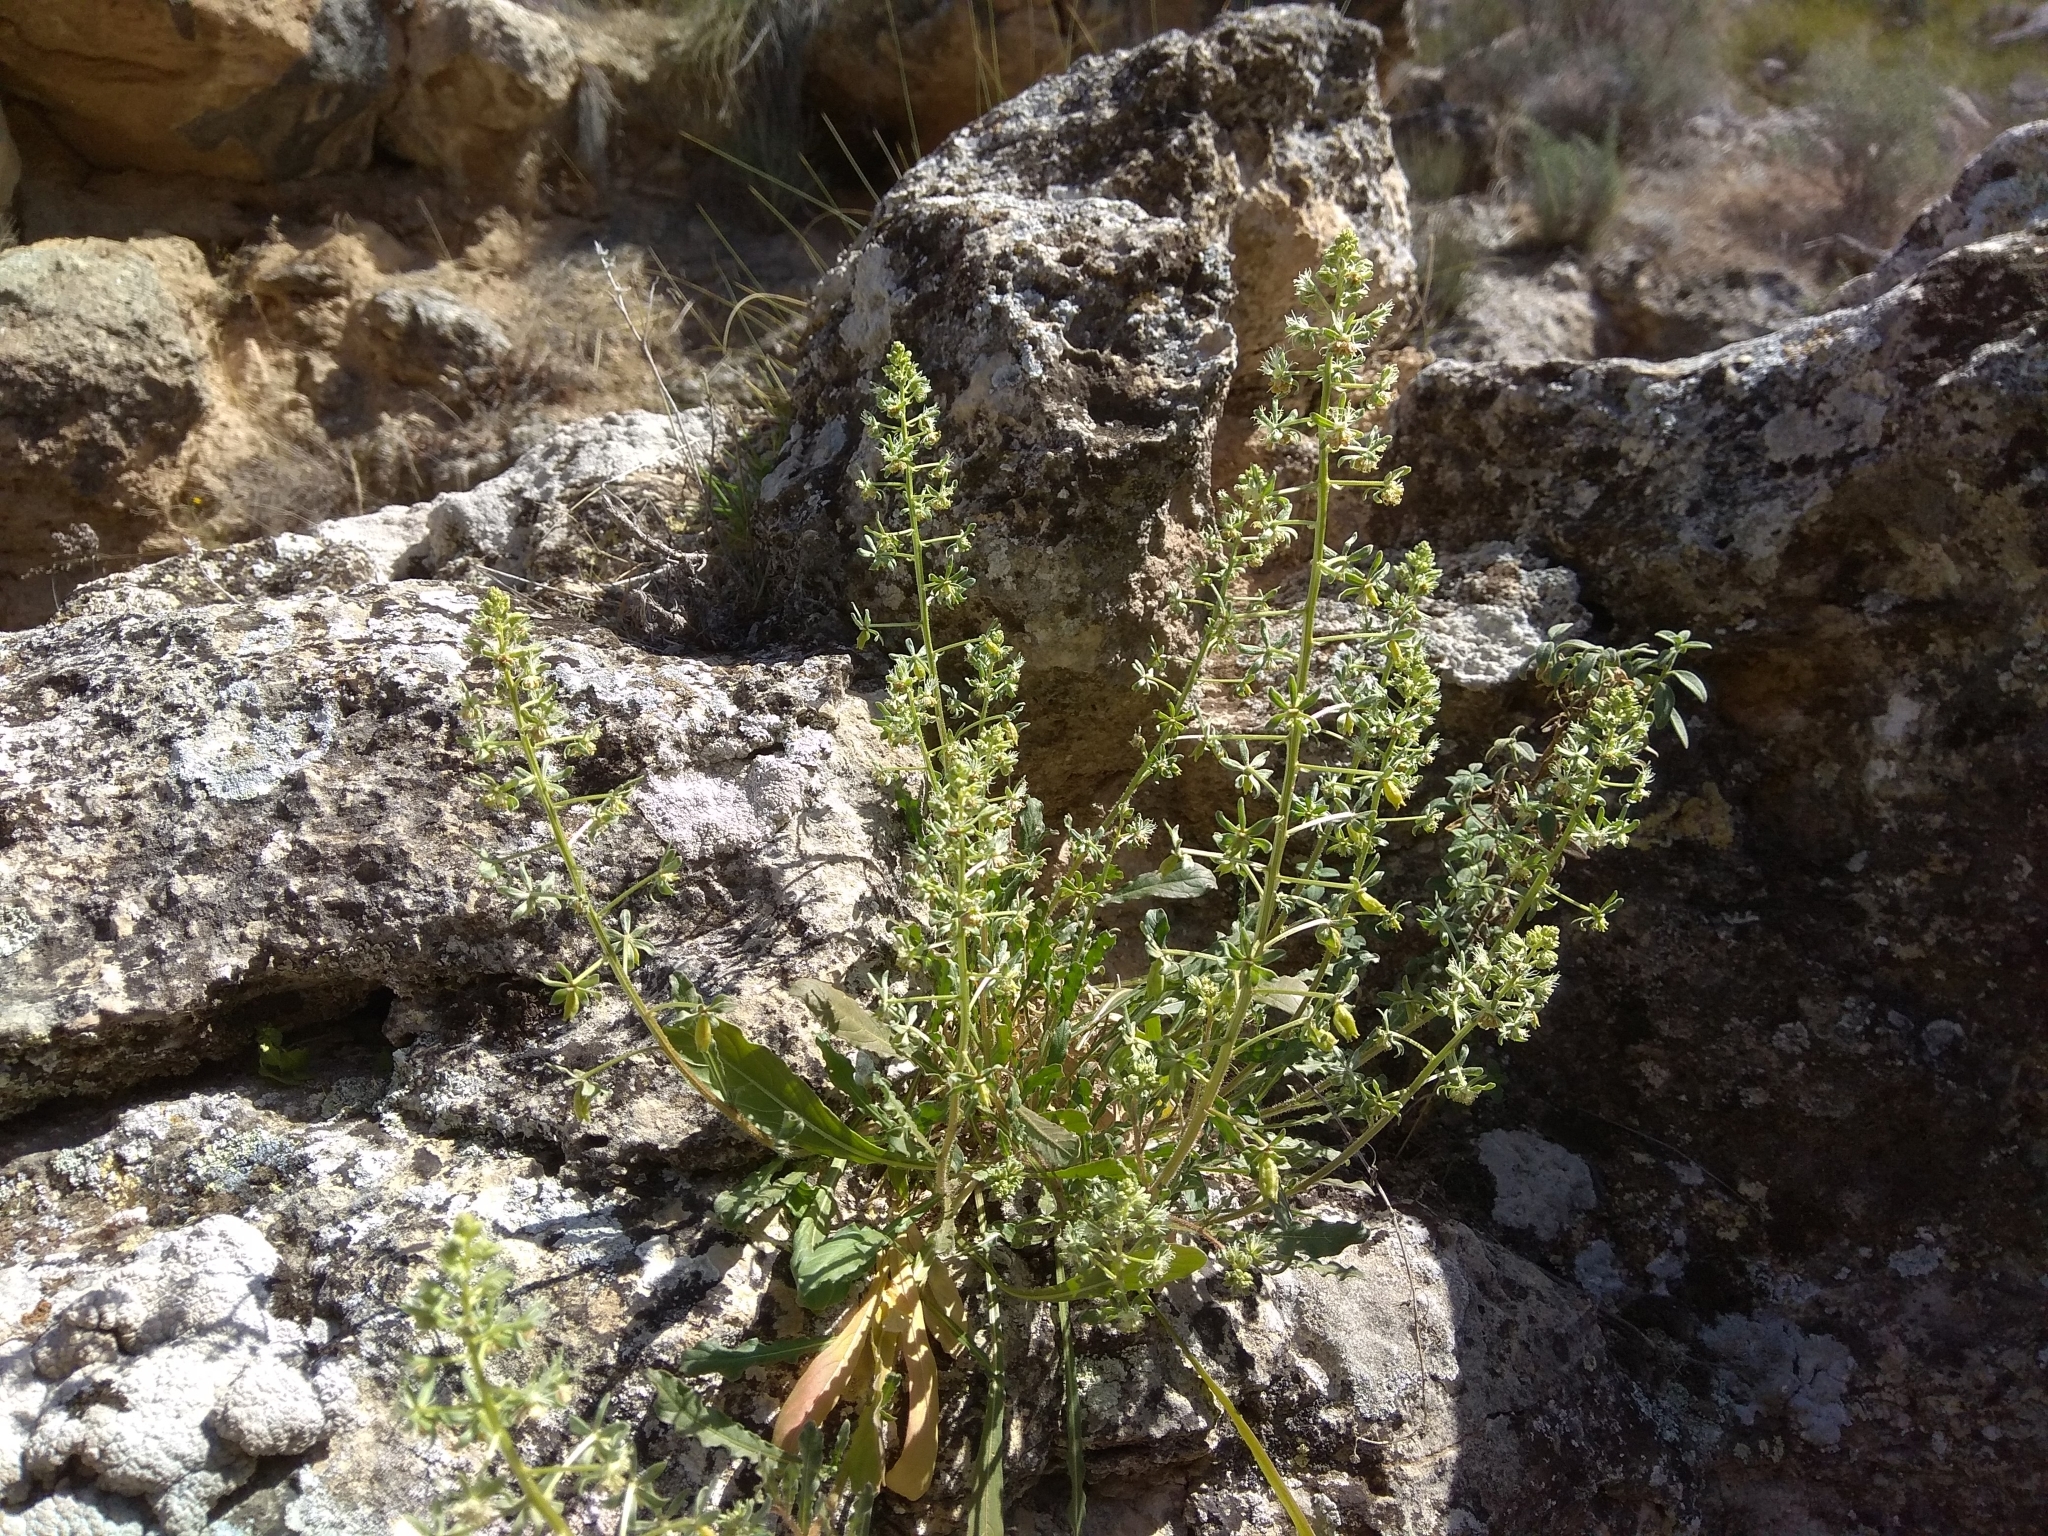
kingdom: Plantae
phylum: Tracheophyta
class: Magnoliopsida
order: Brassicales
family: Resedaceae
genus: Reseda
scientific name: Reseda phyteuma
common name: Corn mignonette
